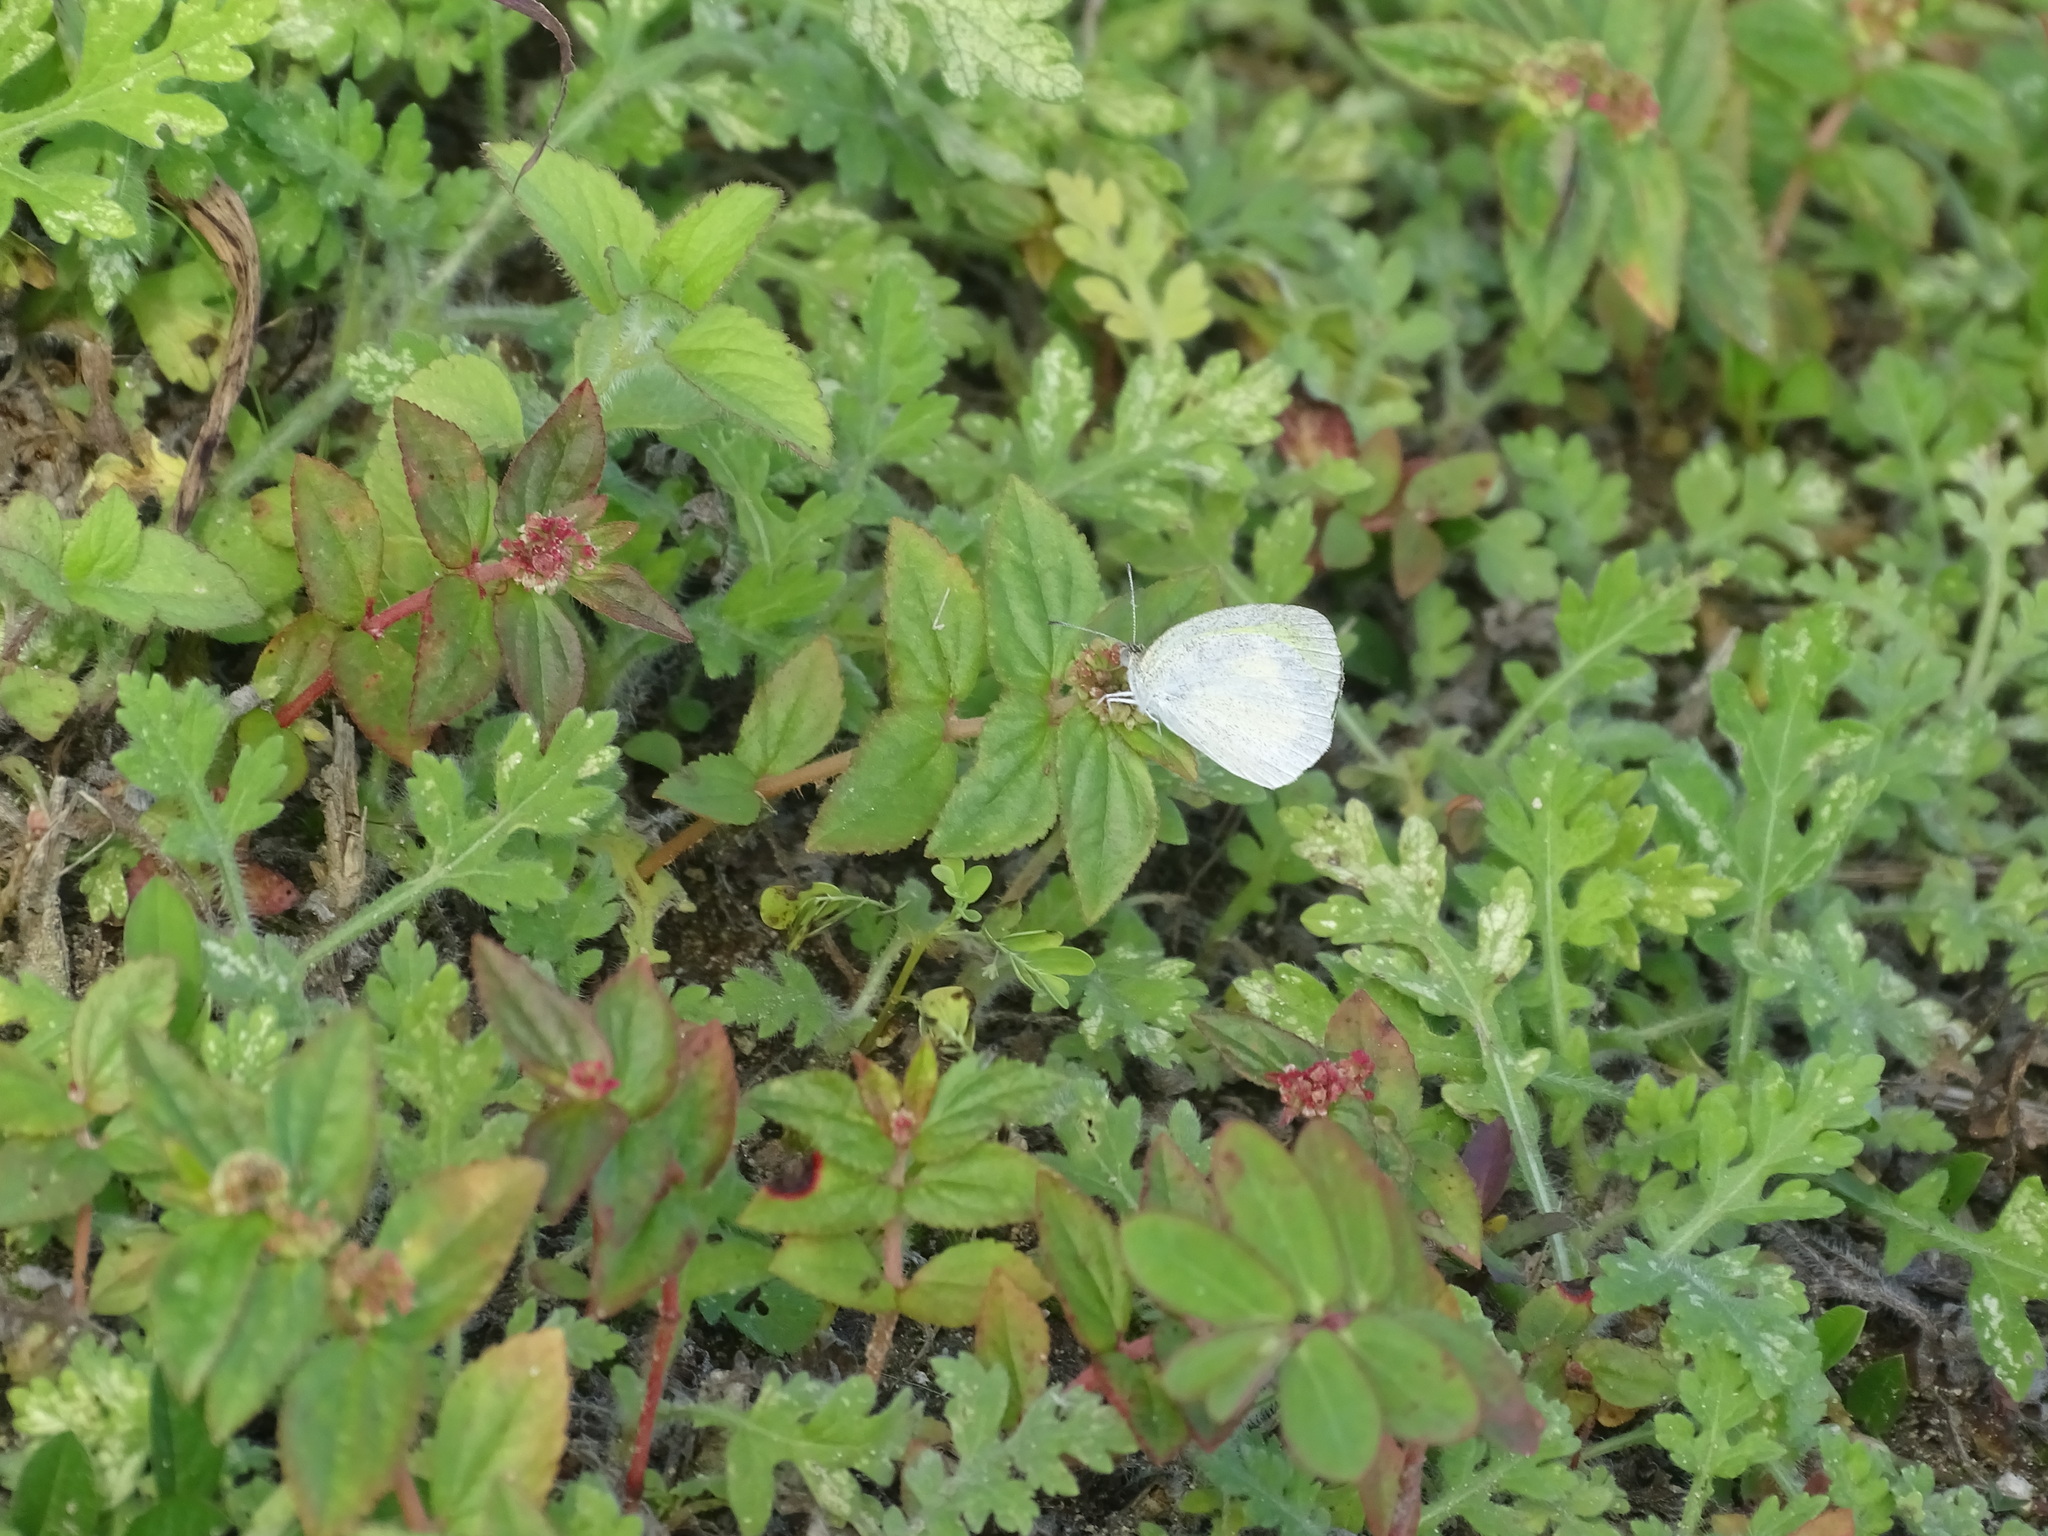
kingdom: Animalia
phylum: Arthropoda
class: Insecta
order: Lepidoptera
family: Pieridae
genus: Eurema
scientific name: Eurema daira
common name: Barred sulphur
